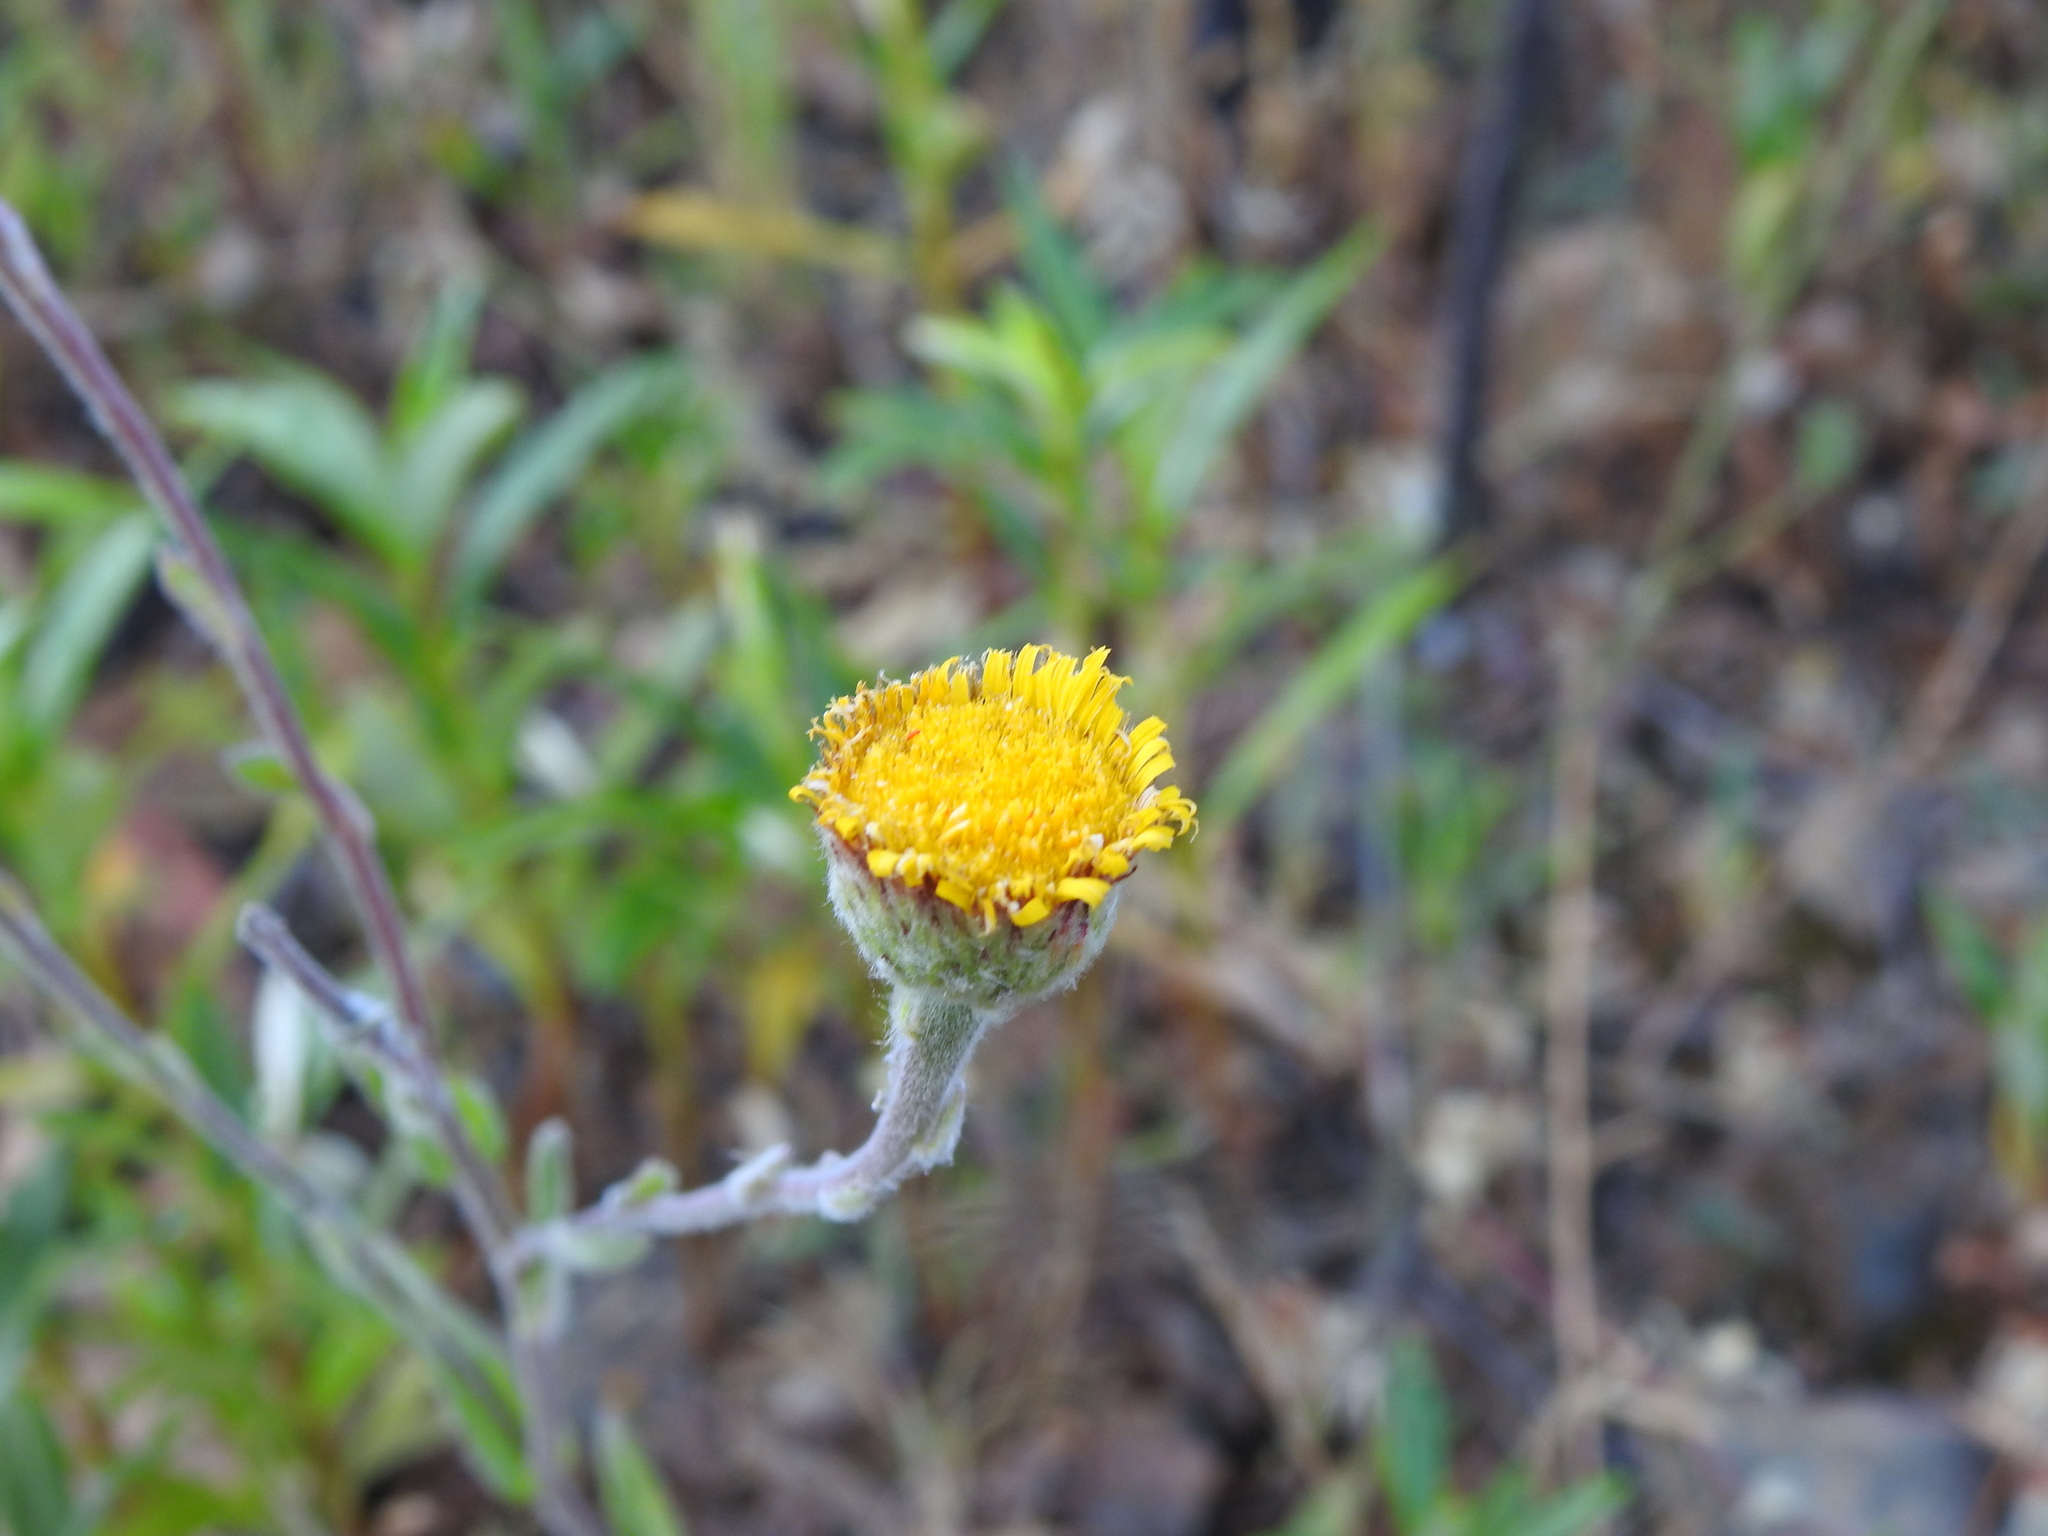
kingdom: Plantae
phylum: Tracheophyta
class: Magnoliopsida
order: Asterales
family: Asteraceae
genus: Pulicaria
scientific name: Pulicaria odora
